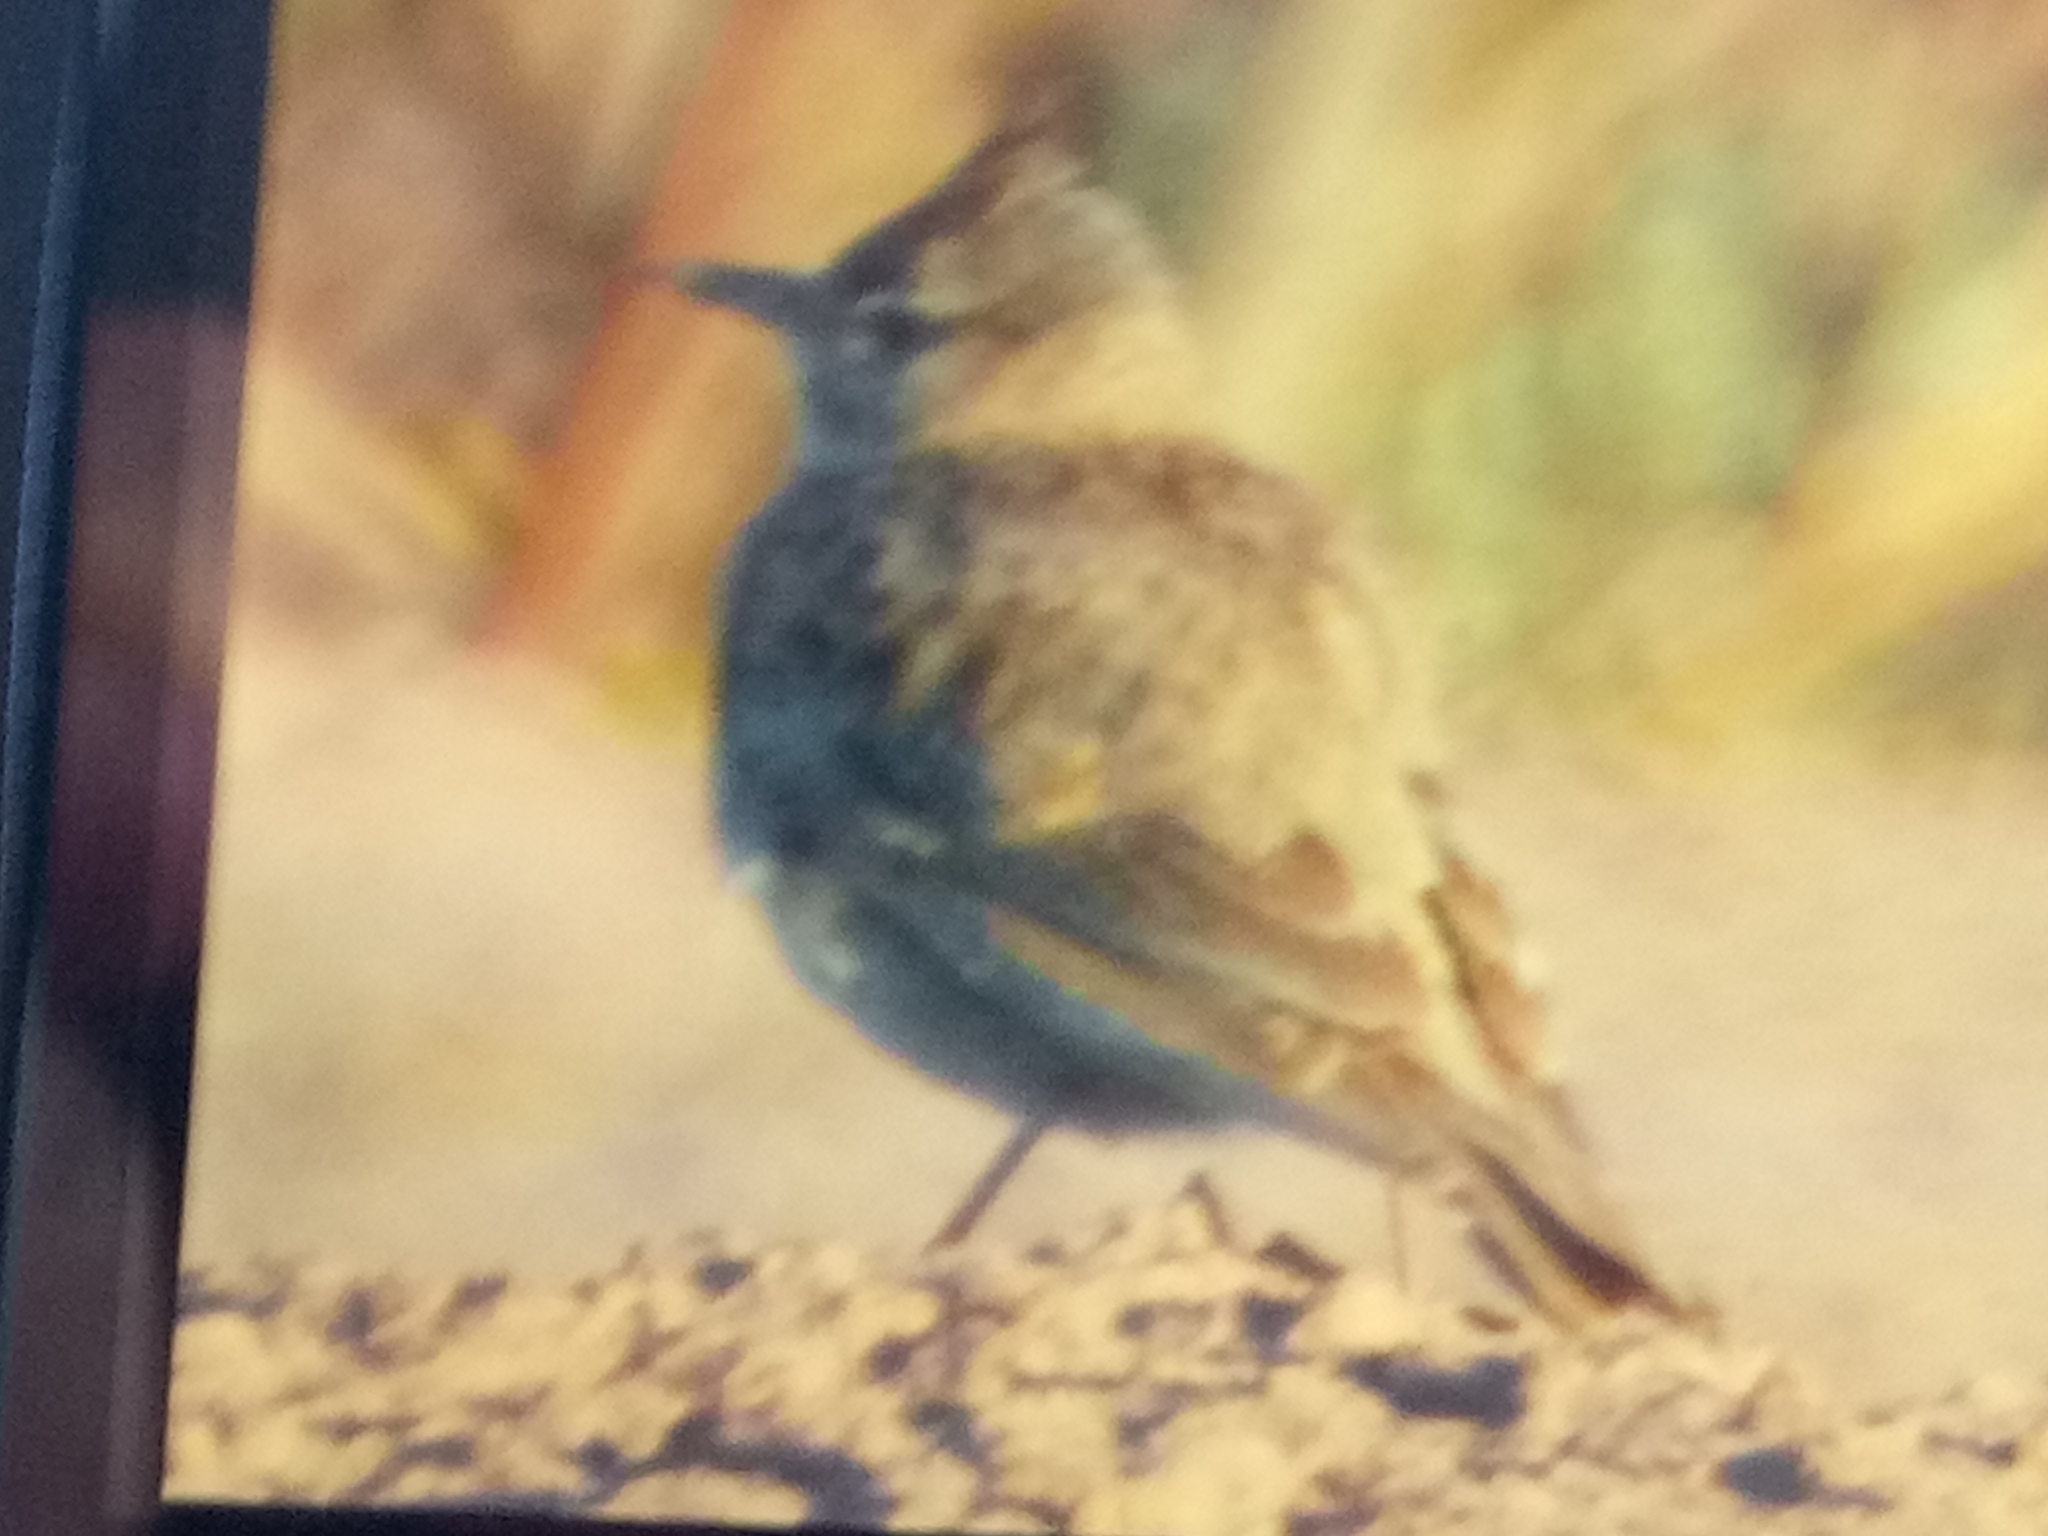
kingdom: Animalia
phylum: Chordata
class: Aves
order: Passeriformes
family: Alaudidae
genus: Galerida
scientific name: Galerida cristata
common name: Crested lark
